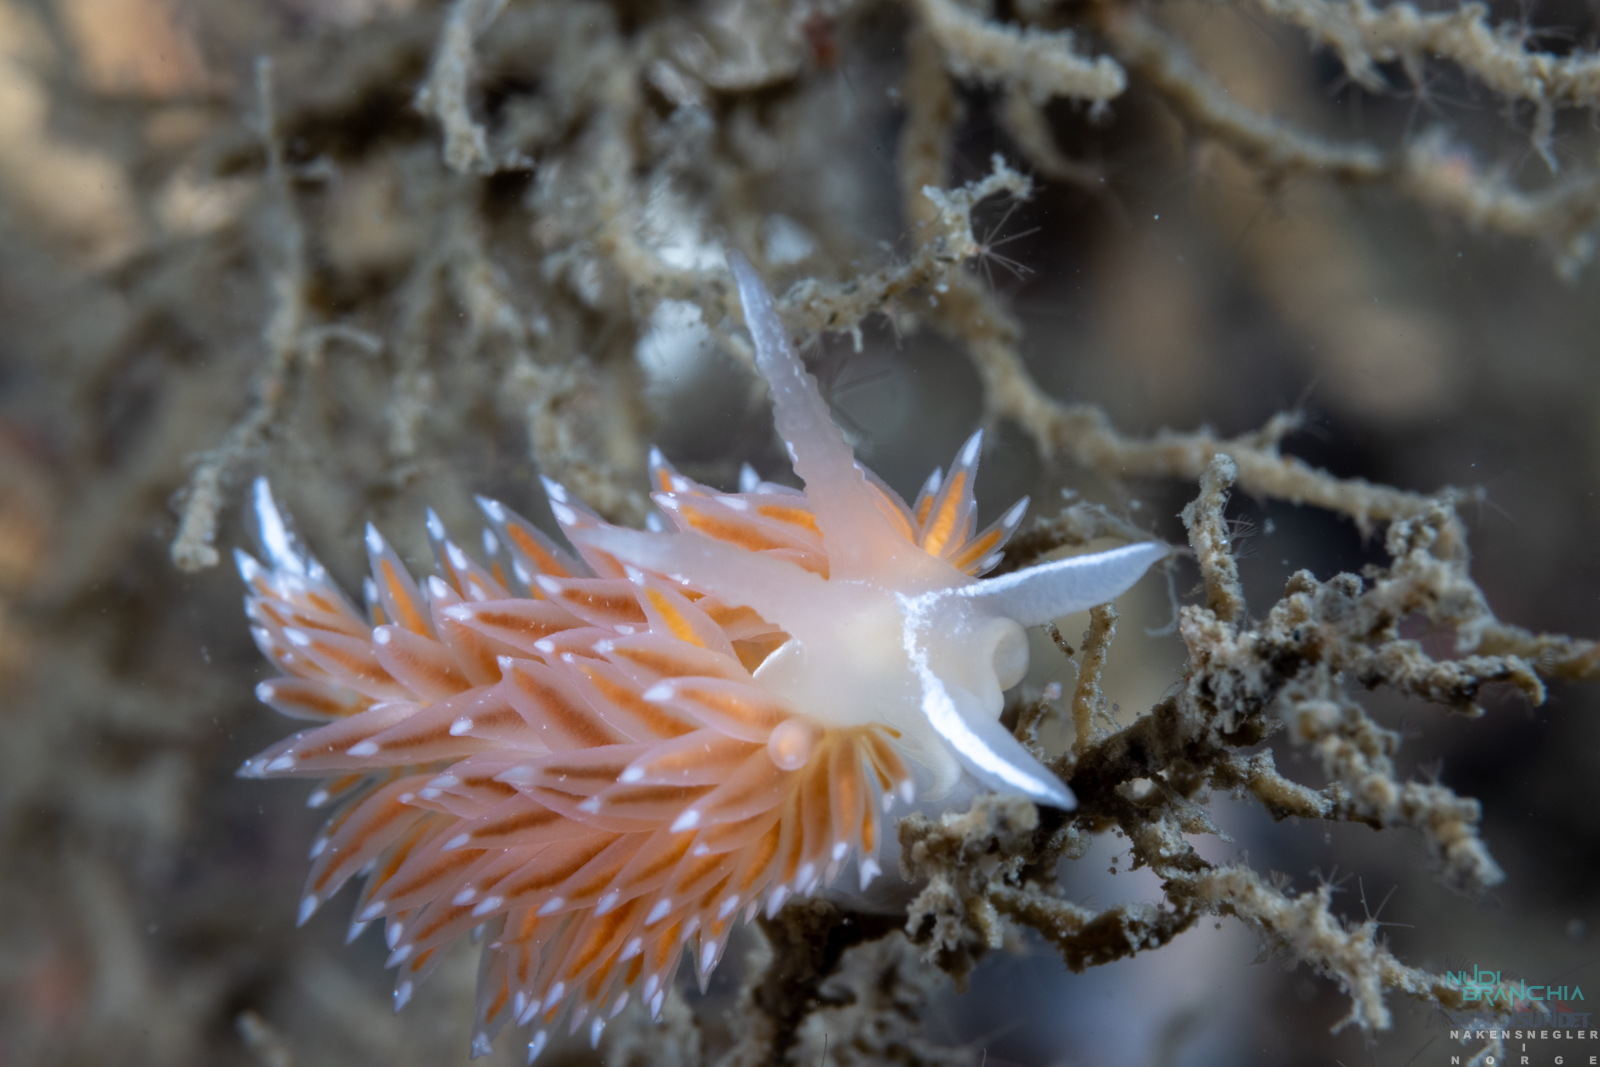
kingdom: Animalia
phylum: Mollusca
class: Gastropoda
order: Nudibranchia
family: Coryphellidae
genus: Coryphella
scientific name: Coryphella orjani
